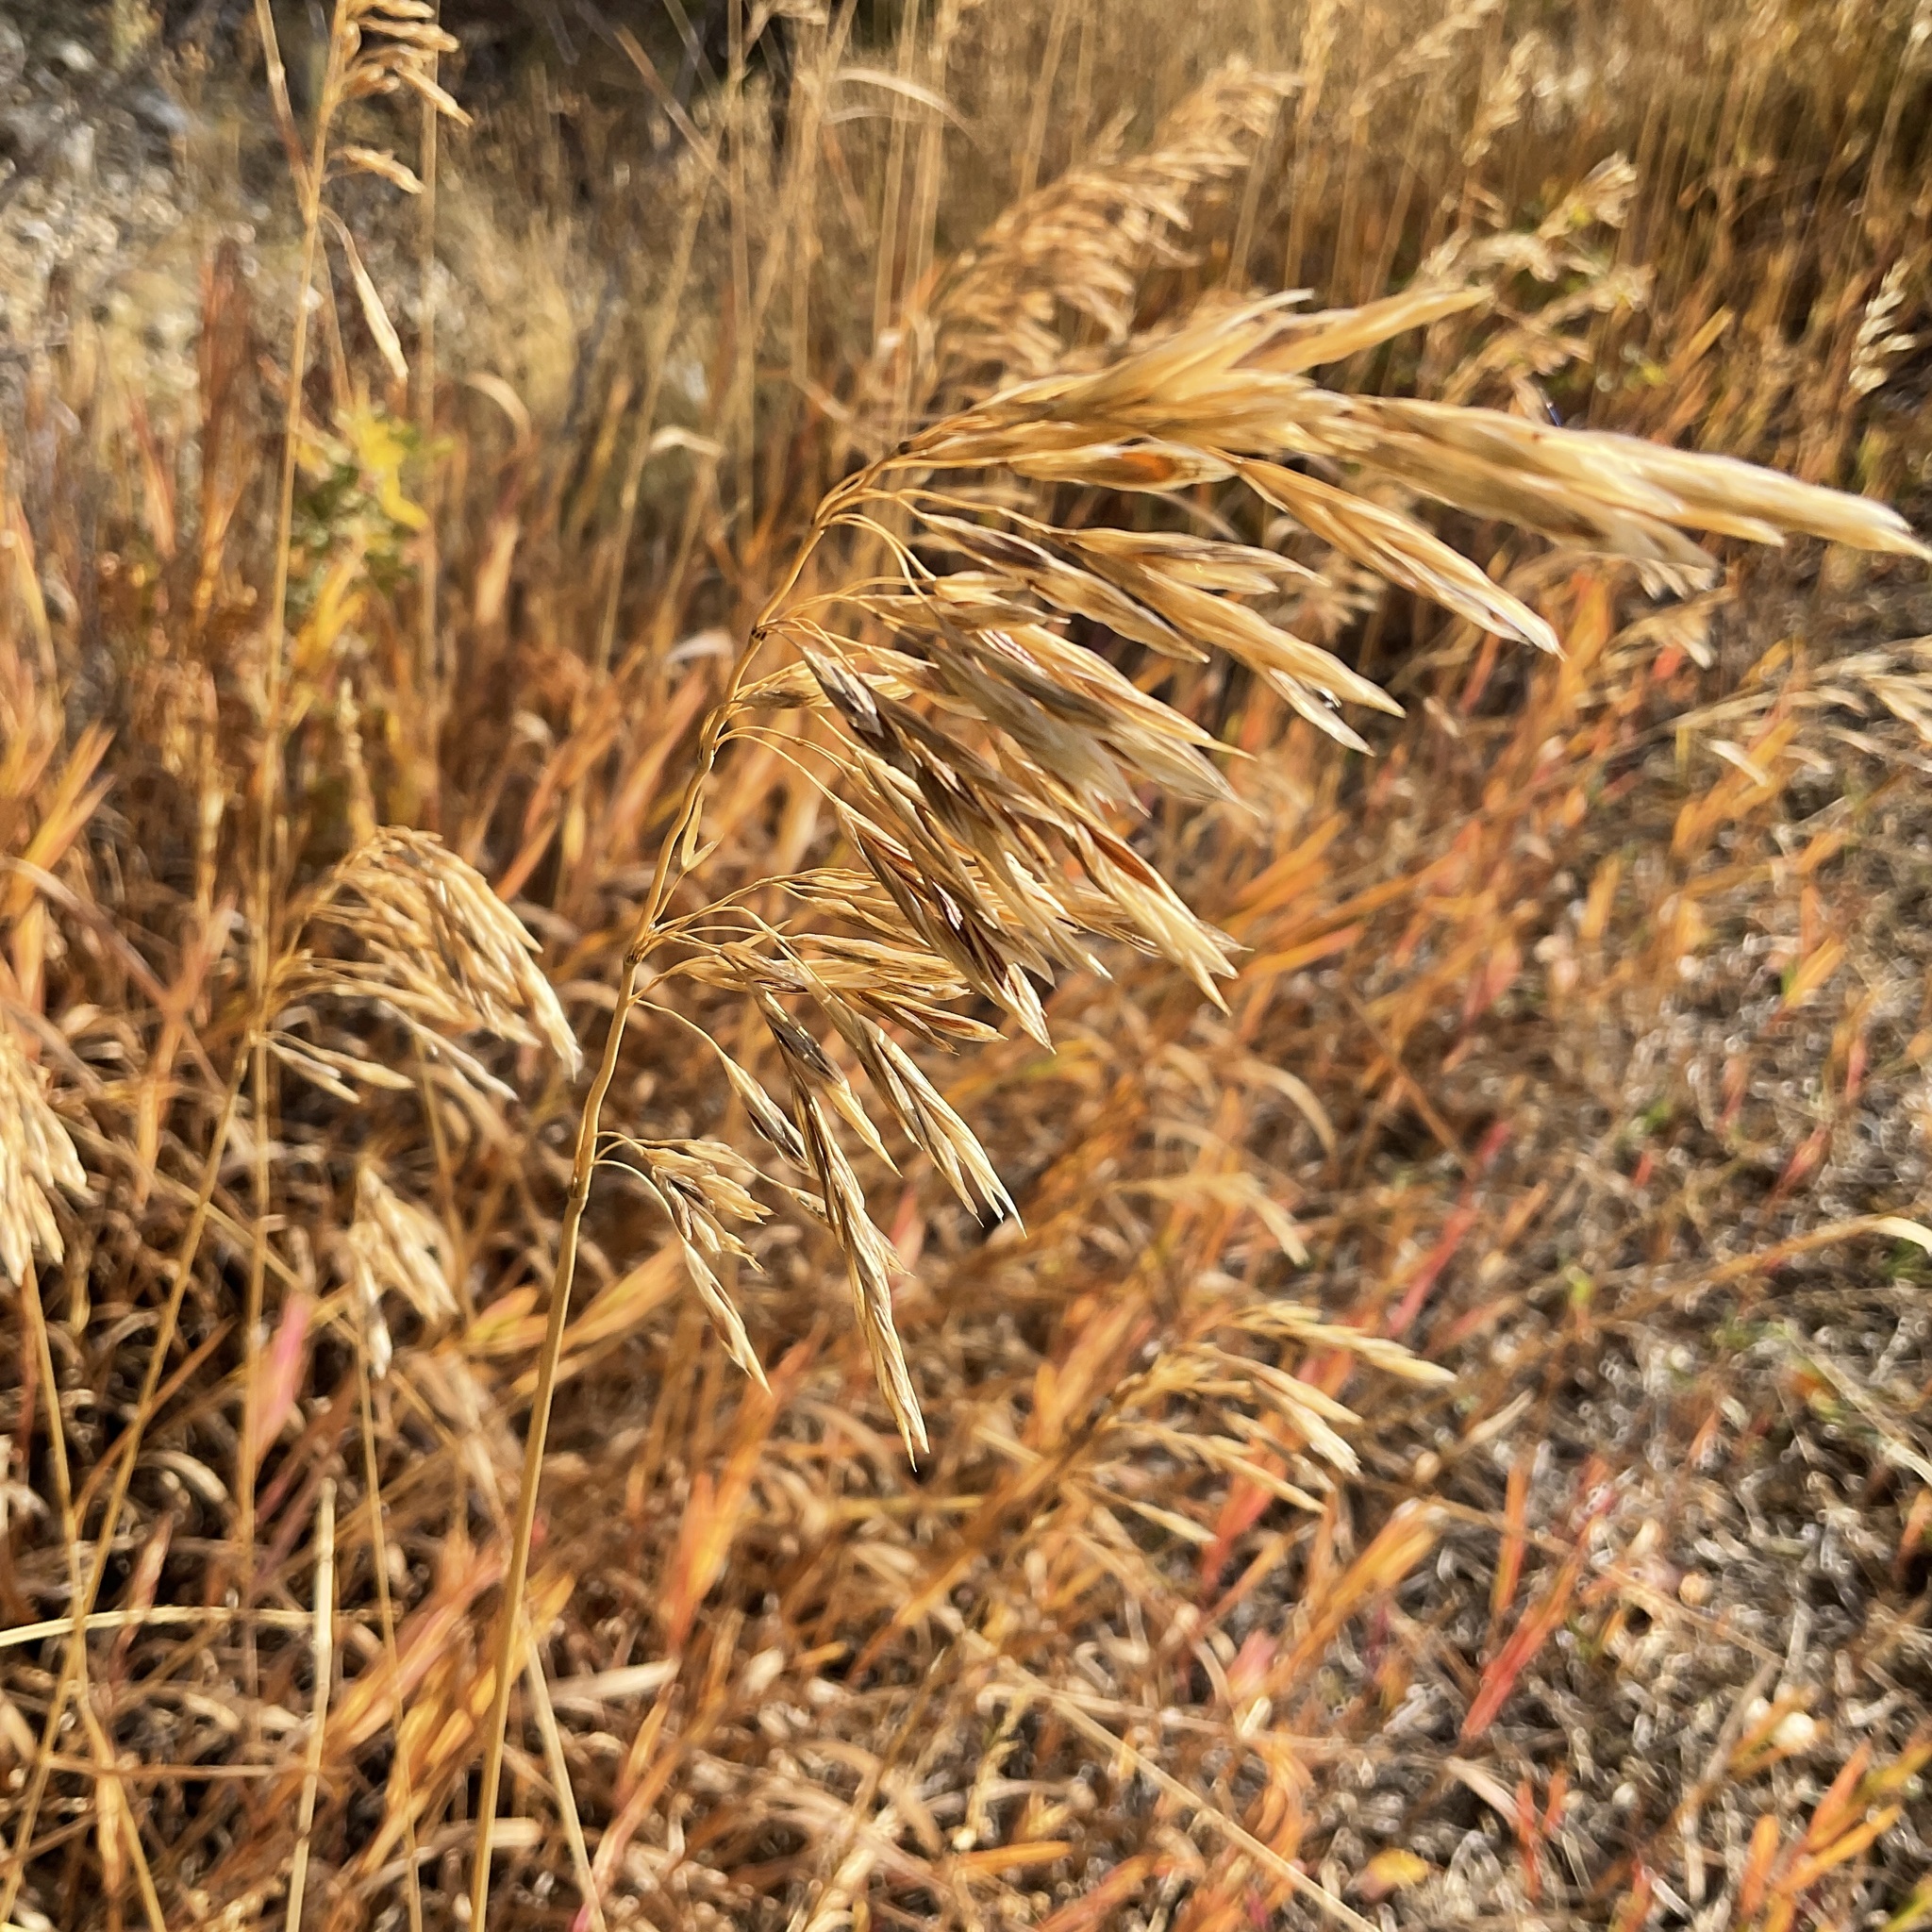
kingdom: Plantae
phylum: Tracheophyta
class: Liliopsida
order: Poales
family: Poaceae
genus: Bromus
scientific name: Bromus inermis
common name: Smooth brome
